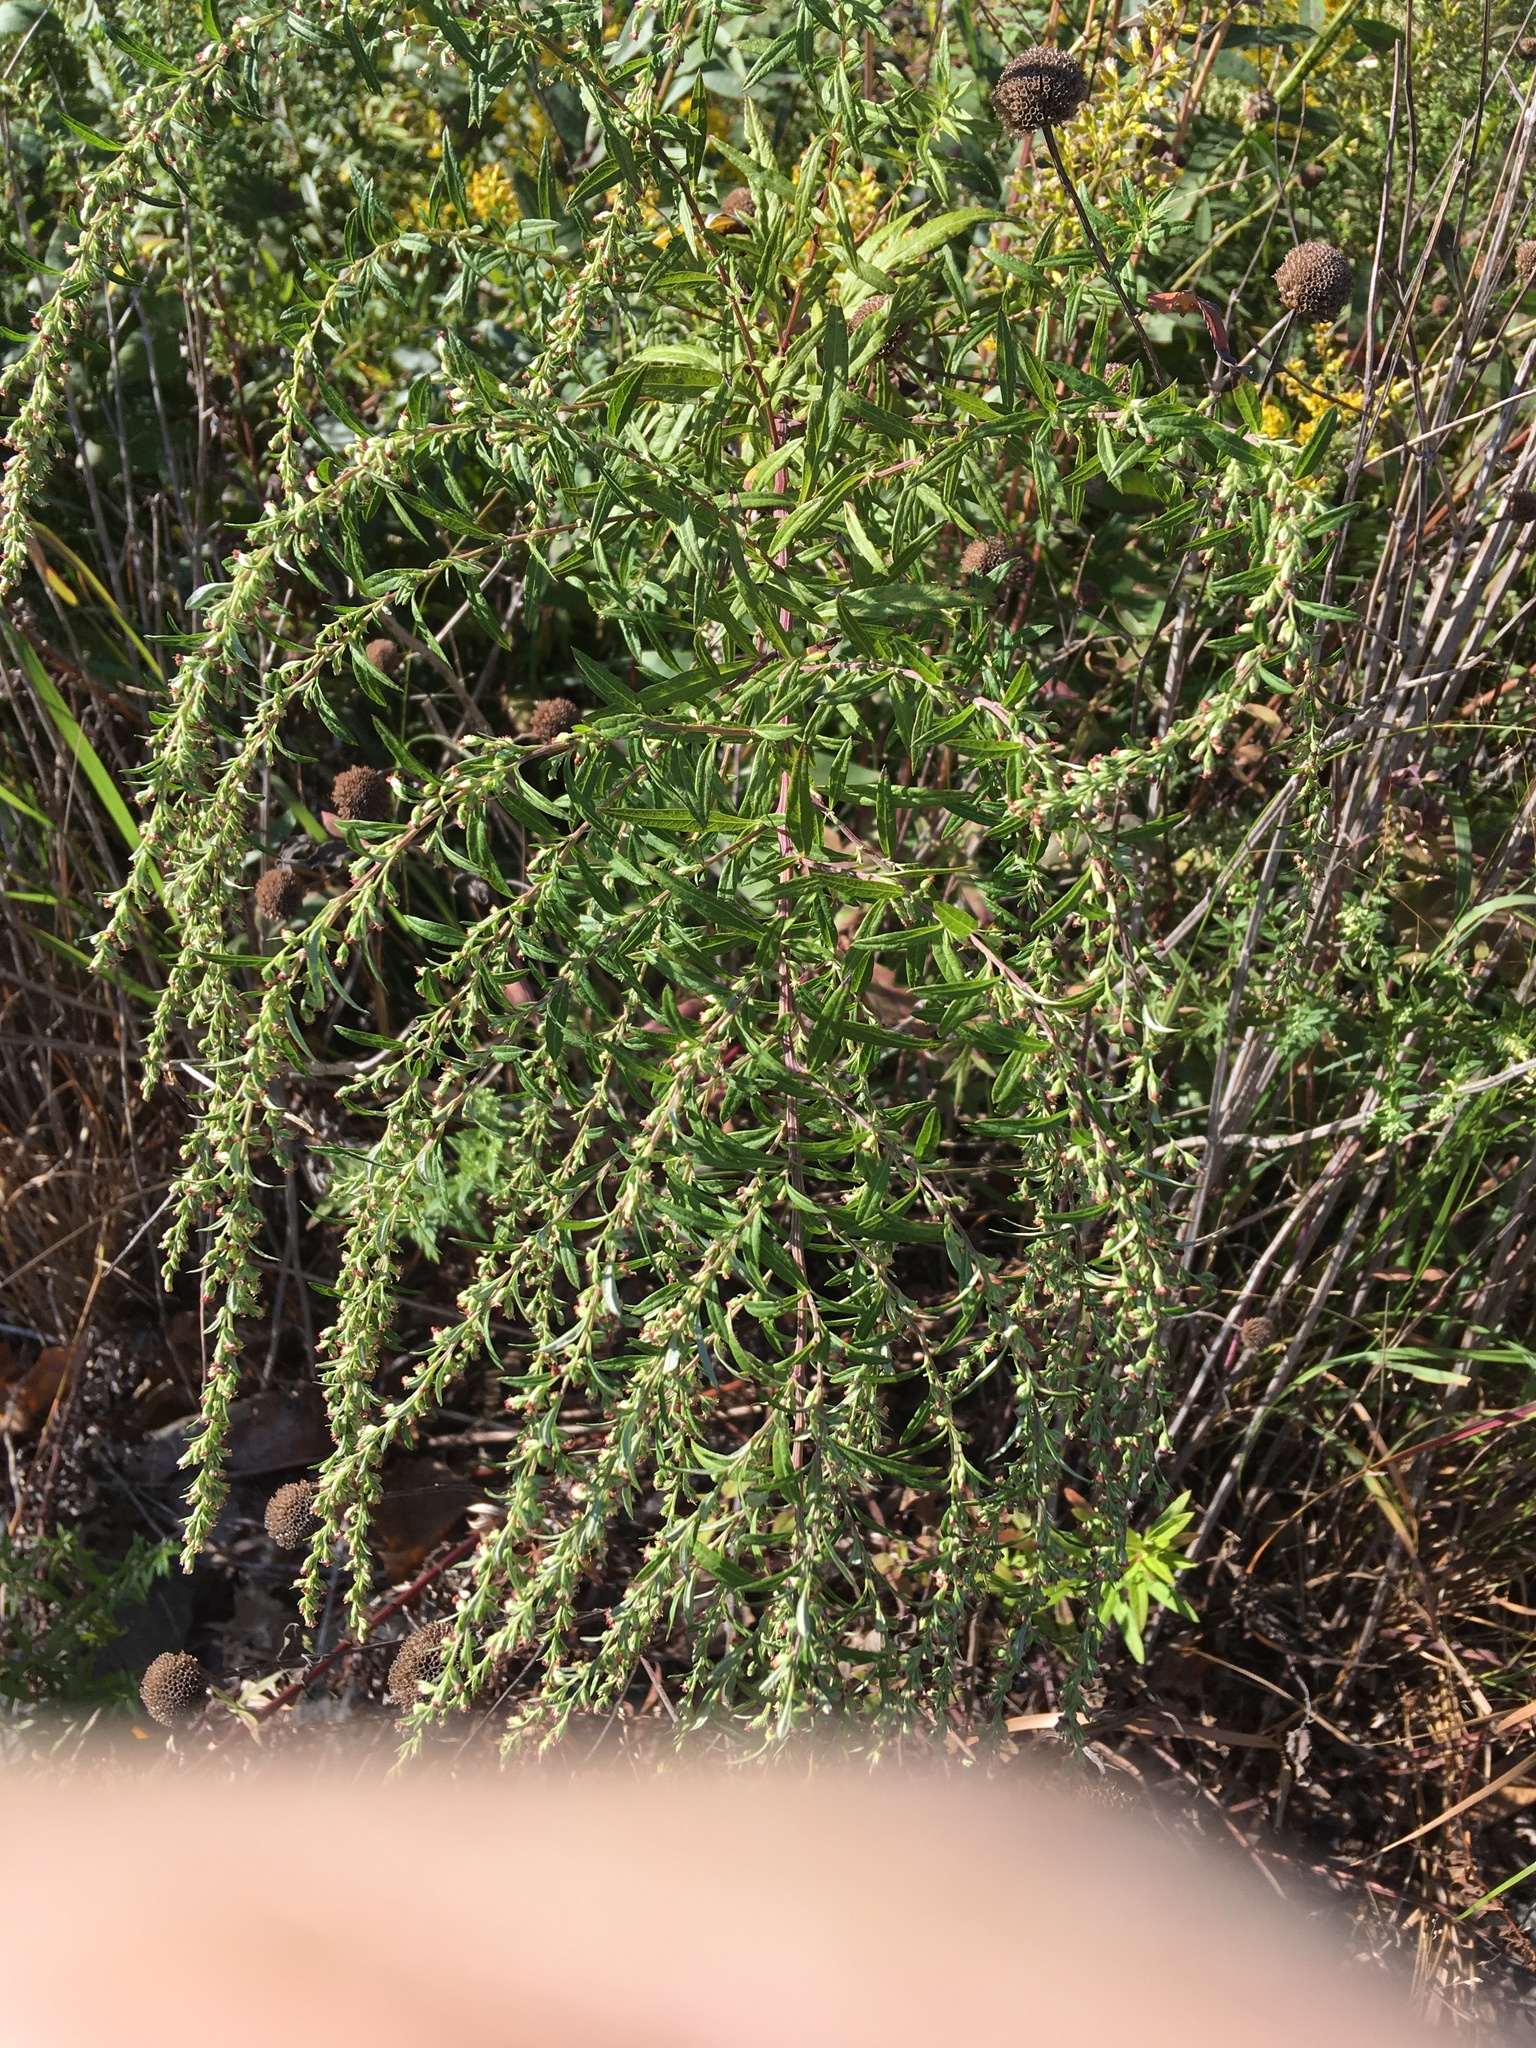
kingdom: Plantae
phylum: Tracheophyta
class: Magnoliopsida
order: Asterales
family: Asteraceae
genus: Artemisia
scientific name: Artemisia vulgaris
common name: Mugwort
